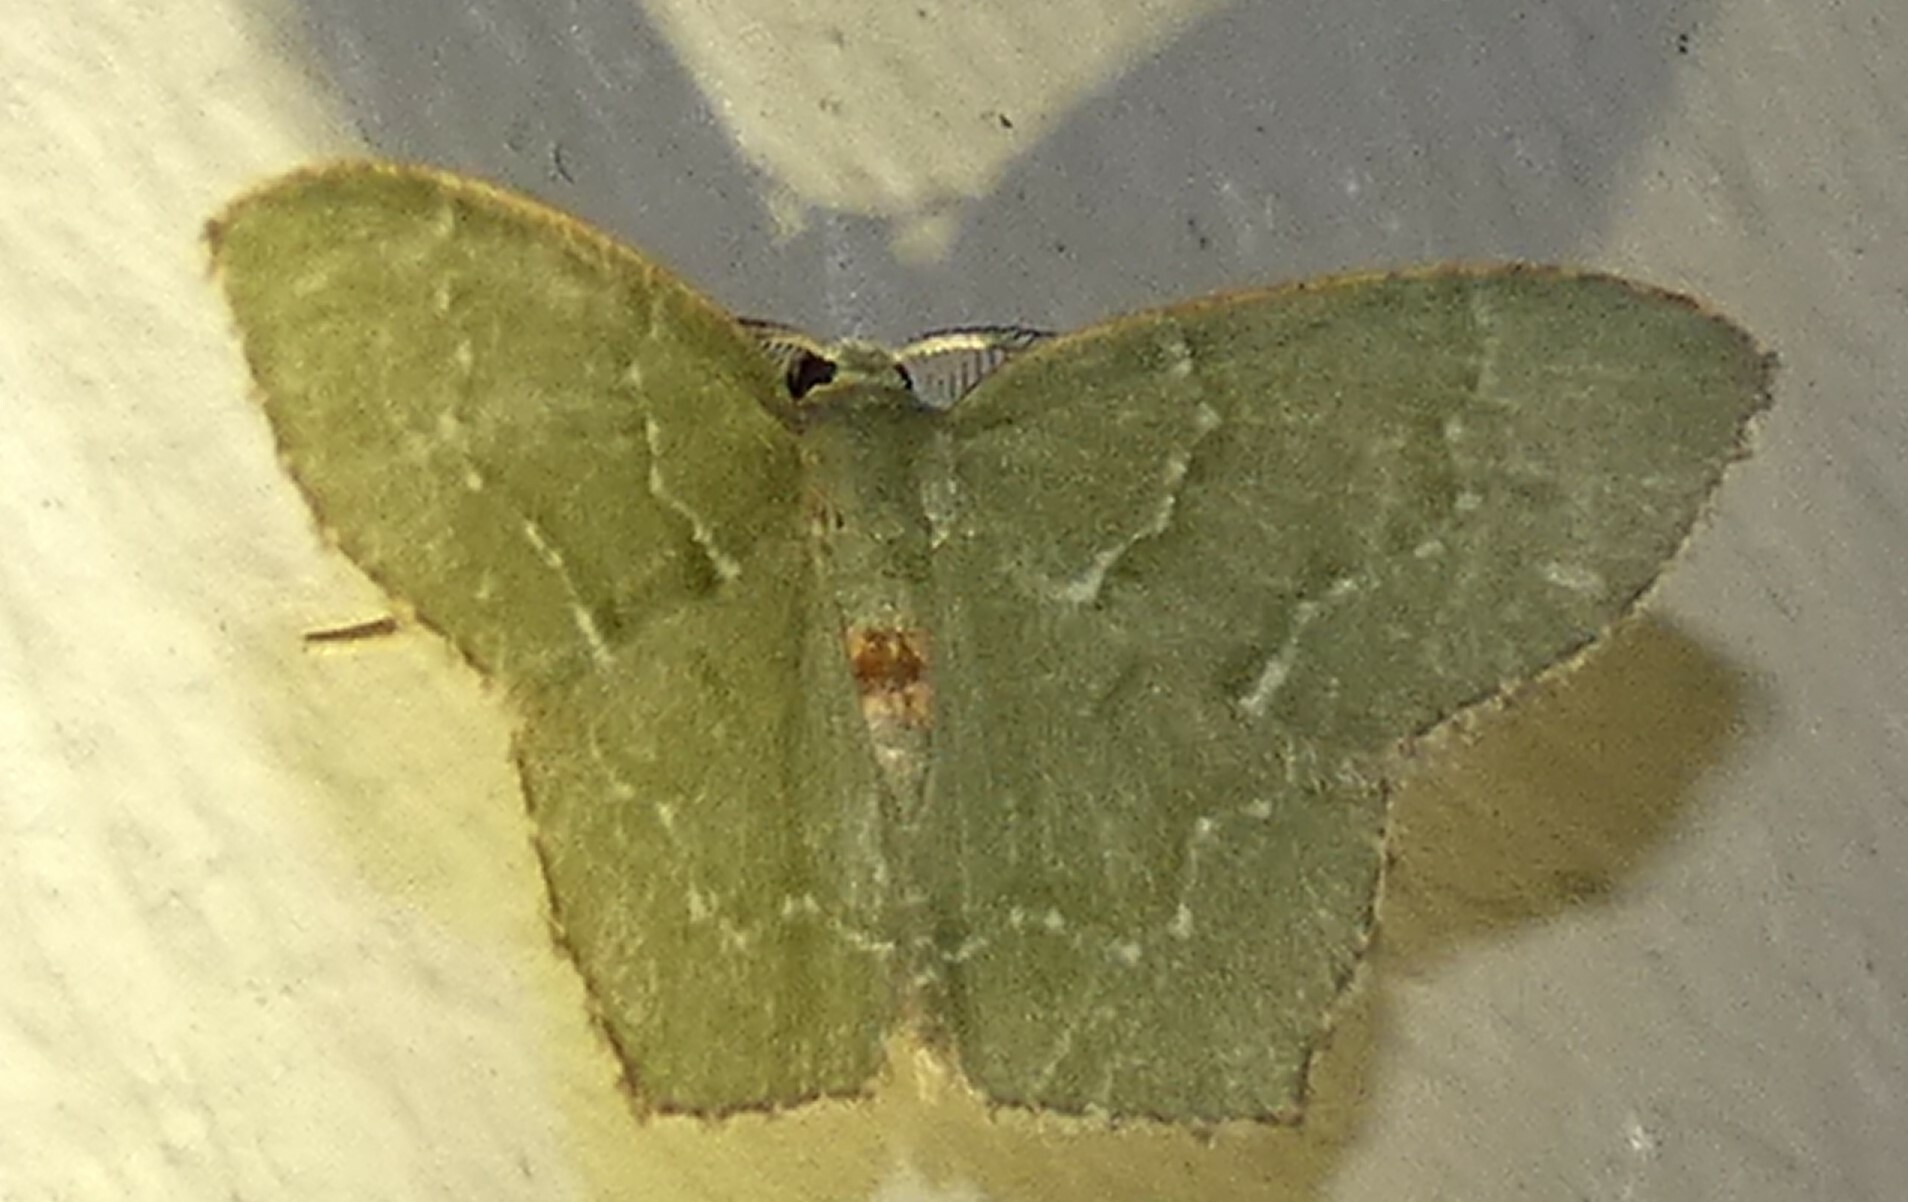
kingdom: Animalia
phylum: Arthropoda
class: Insecta
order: Lepidoptera
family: Geometridae
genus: Chloropteryx
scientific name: Chloropteryx tepperaria
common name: Angle winged emerald moth
